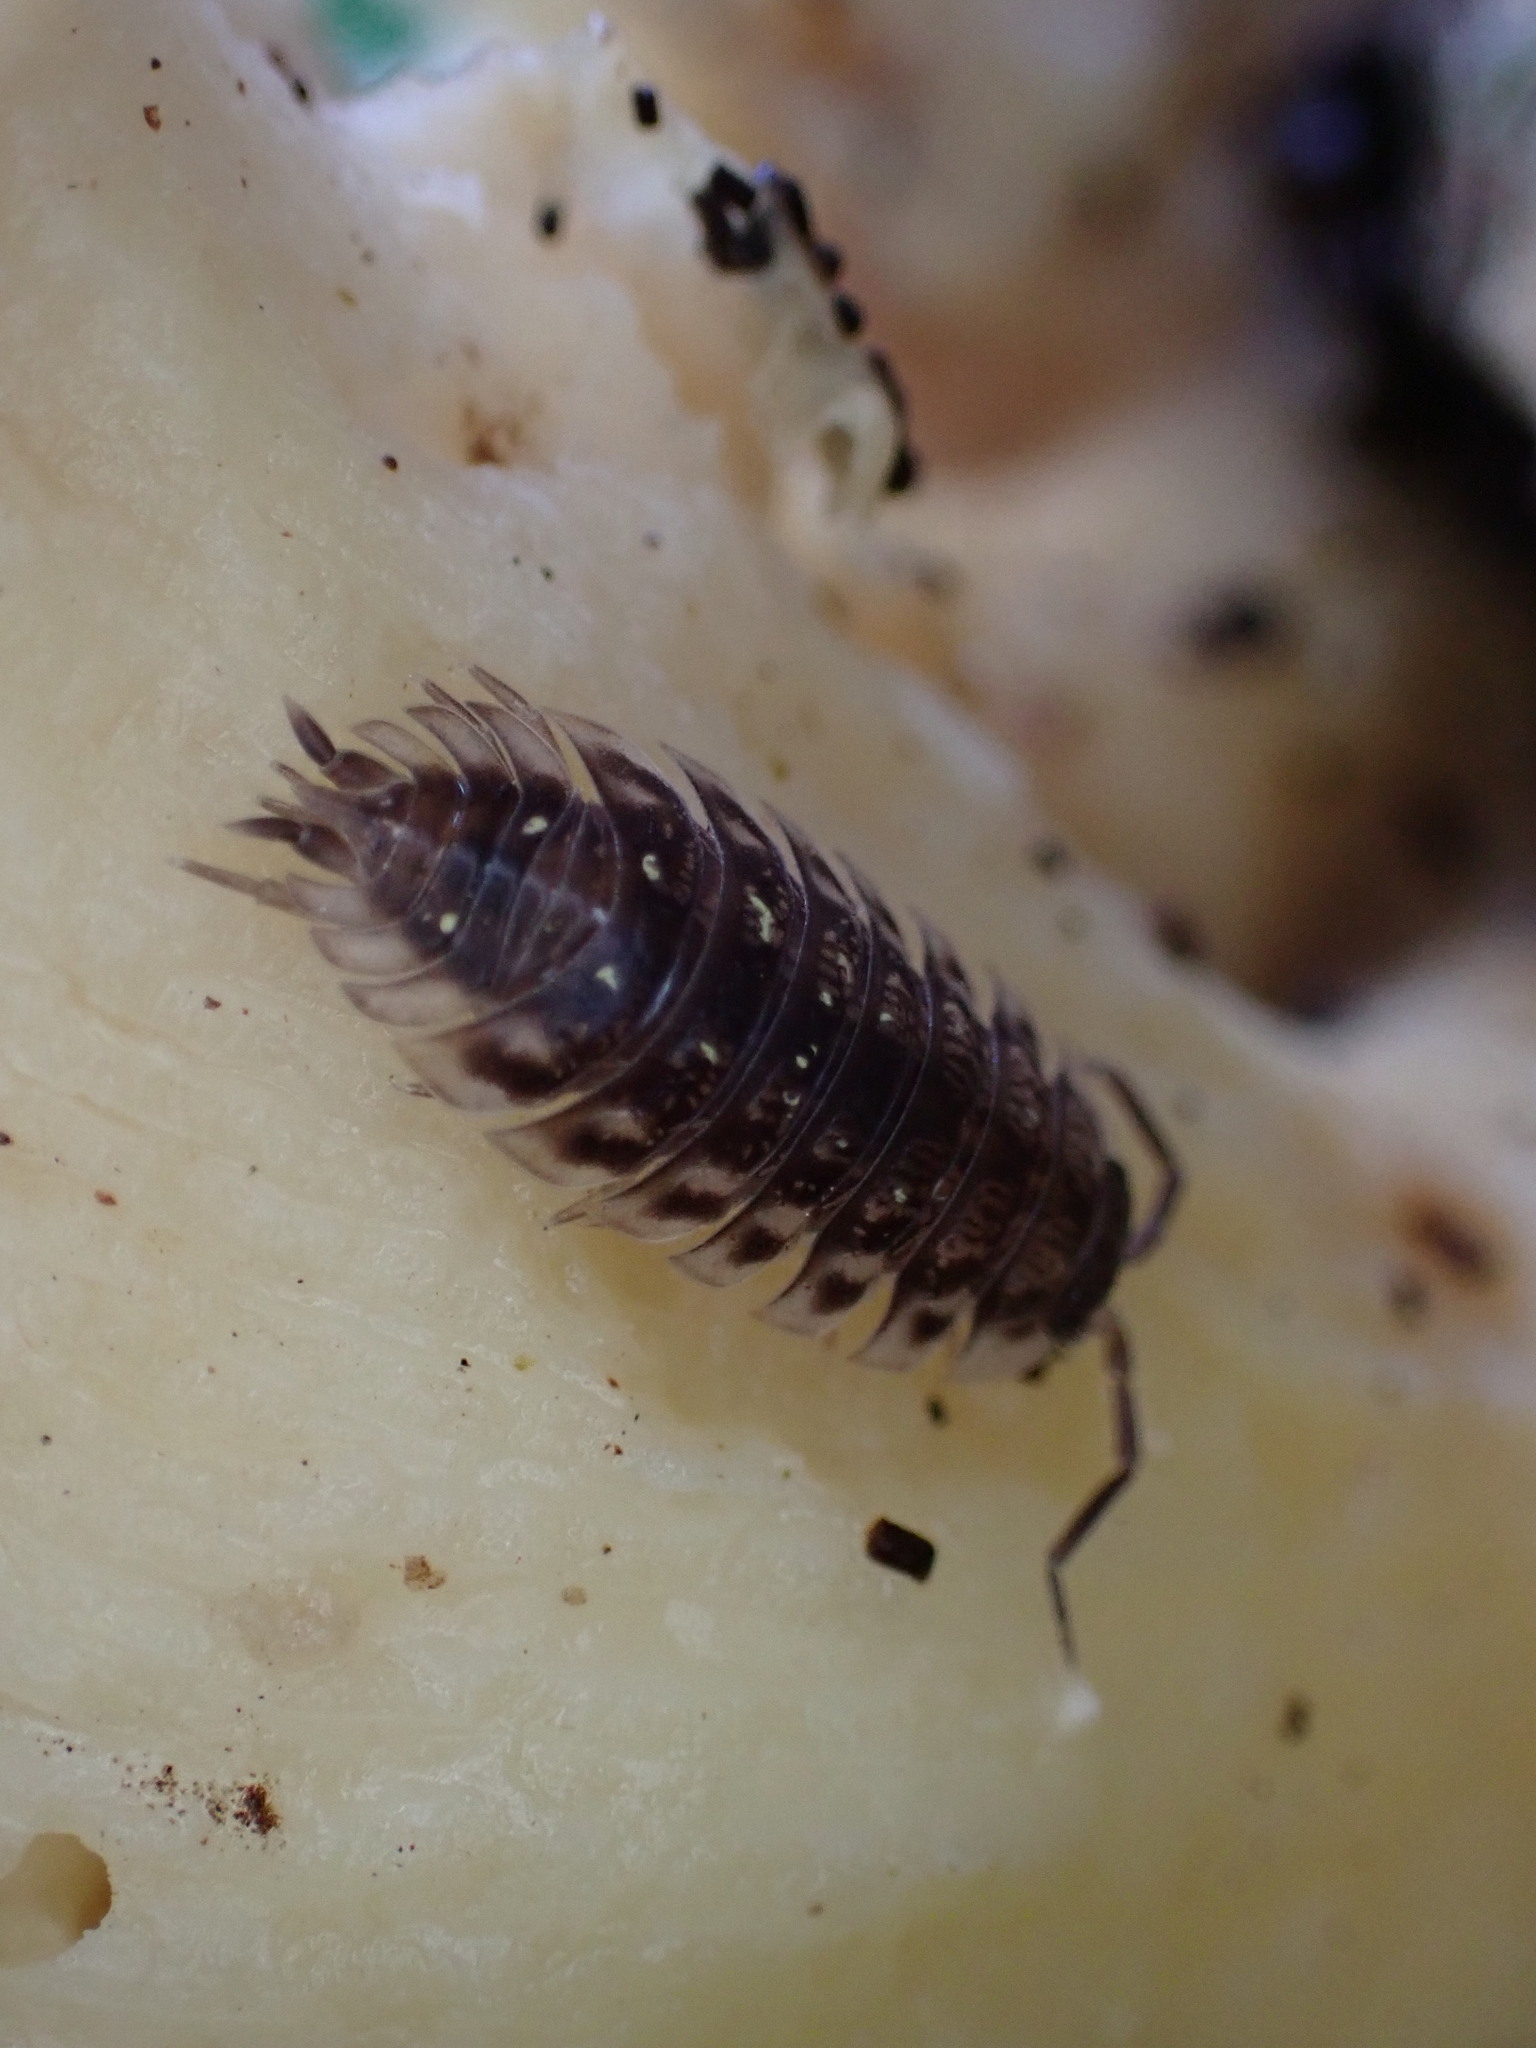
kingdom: Animalia
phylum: Arthropoda
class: Malacostraca
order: Isopoda
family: Oniscidae
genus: Oniscus
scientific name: Oniscus asellus
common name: Common shiny woodlouse
